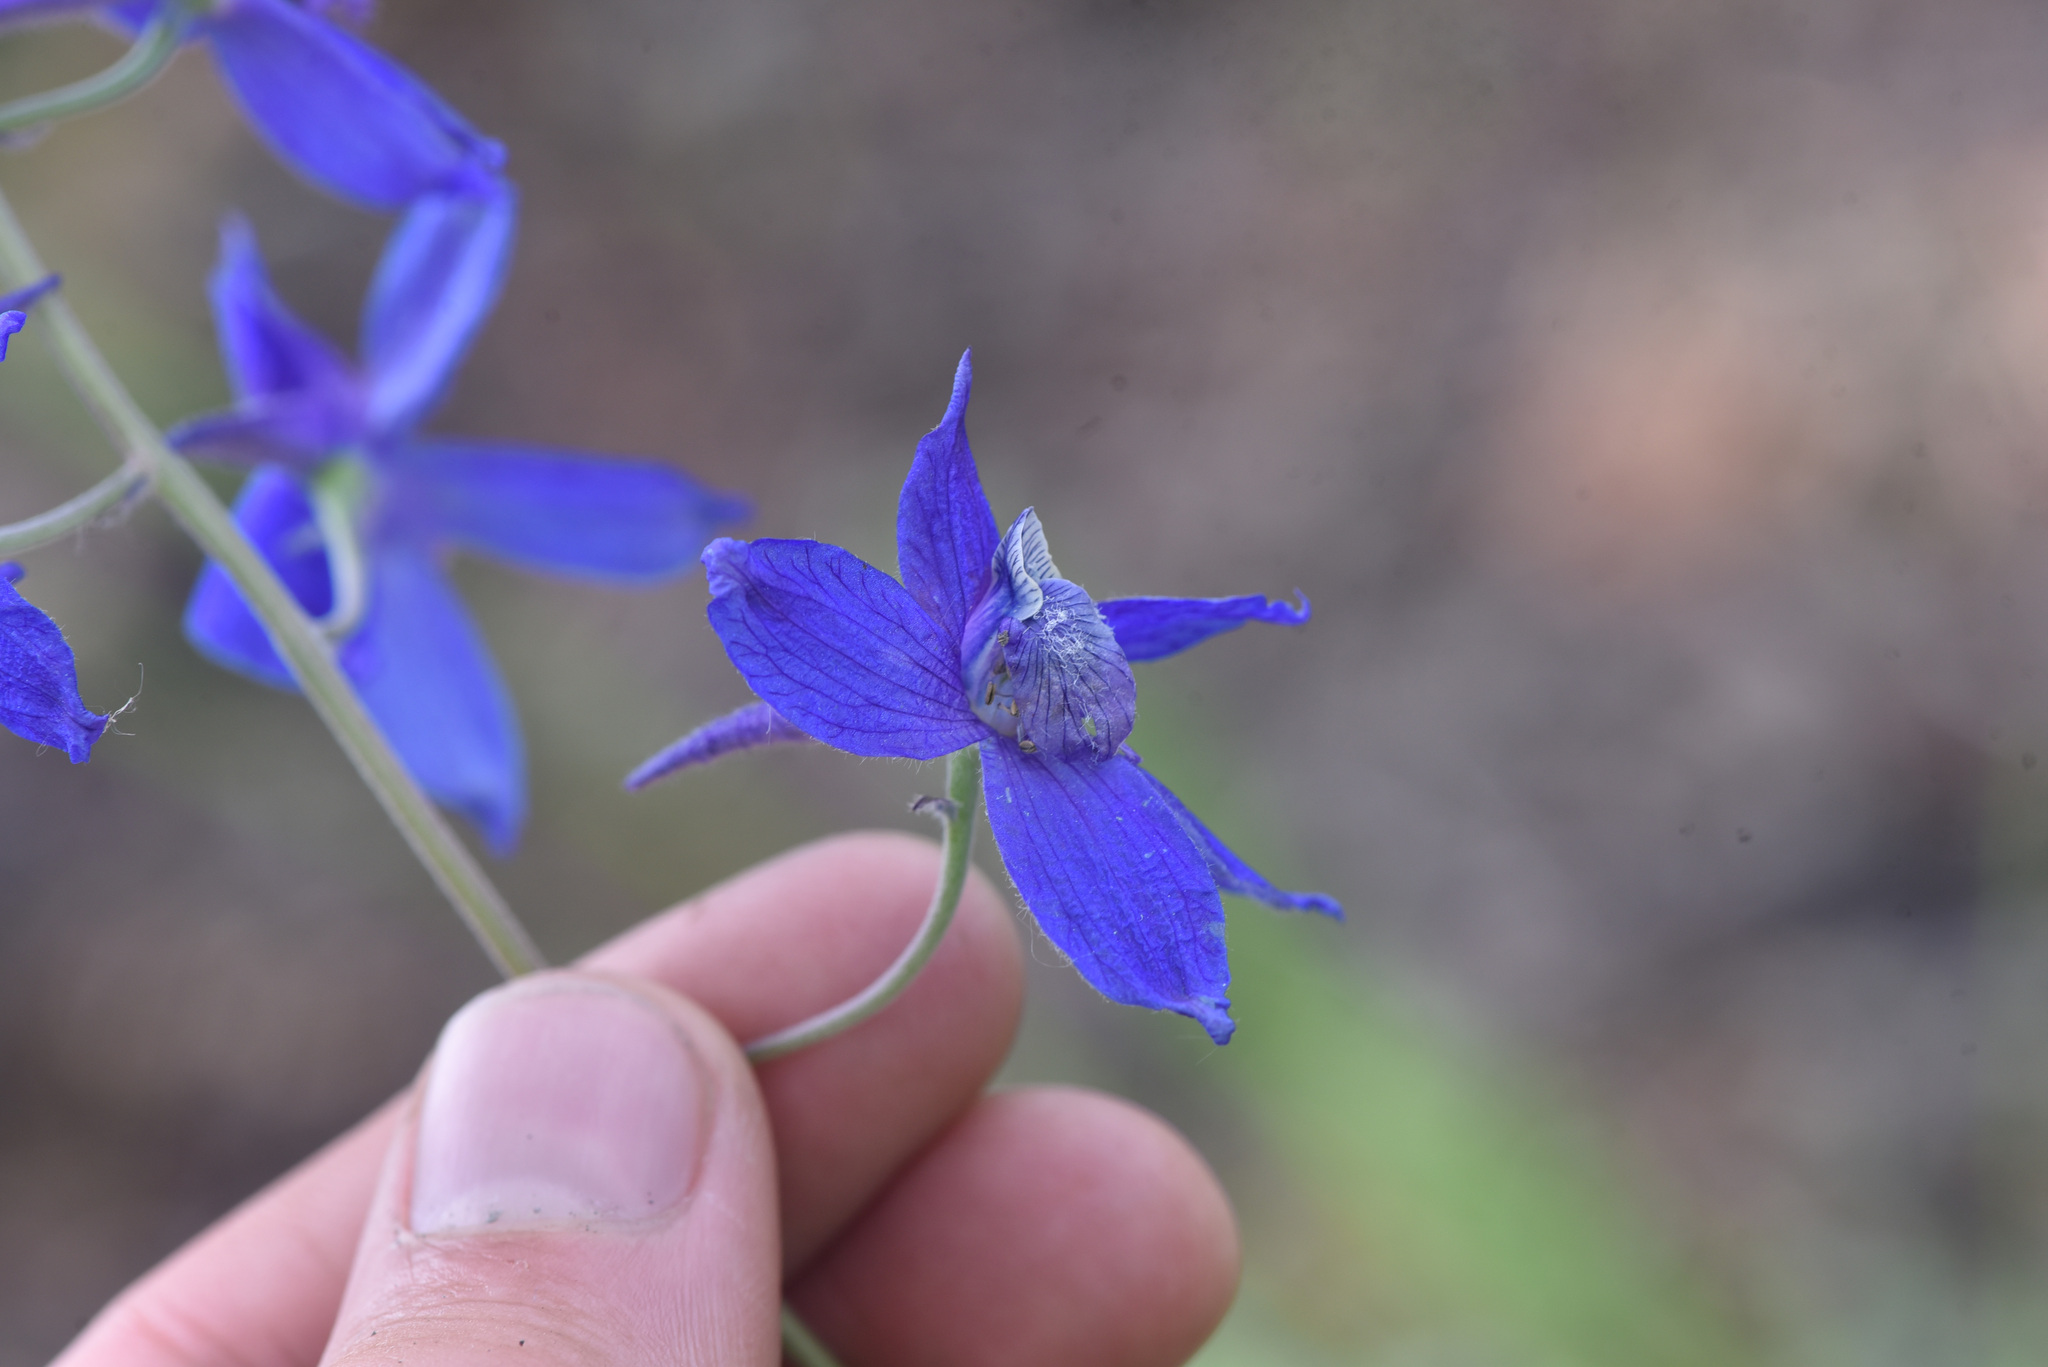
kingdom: Plantae
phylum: Tracheophyta
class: Magnoliopsida
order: Ranunculales
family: Ranunculaceae
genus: Delphinium
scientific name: Delphinium nuttallianum
